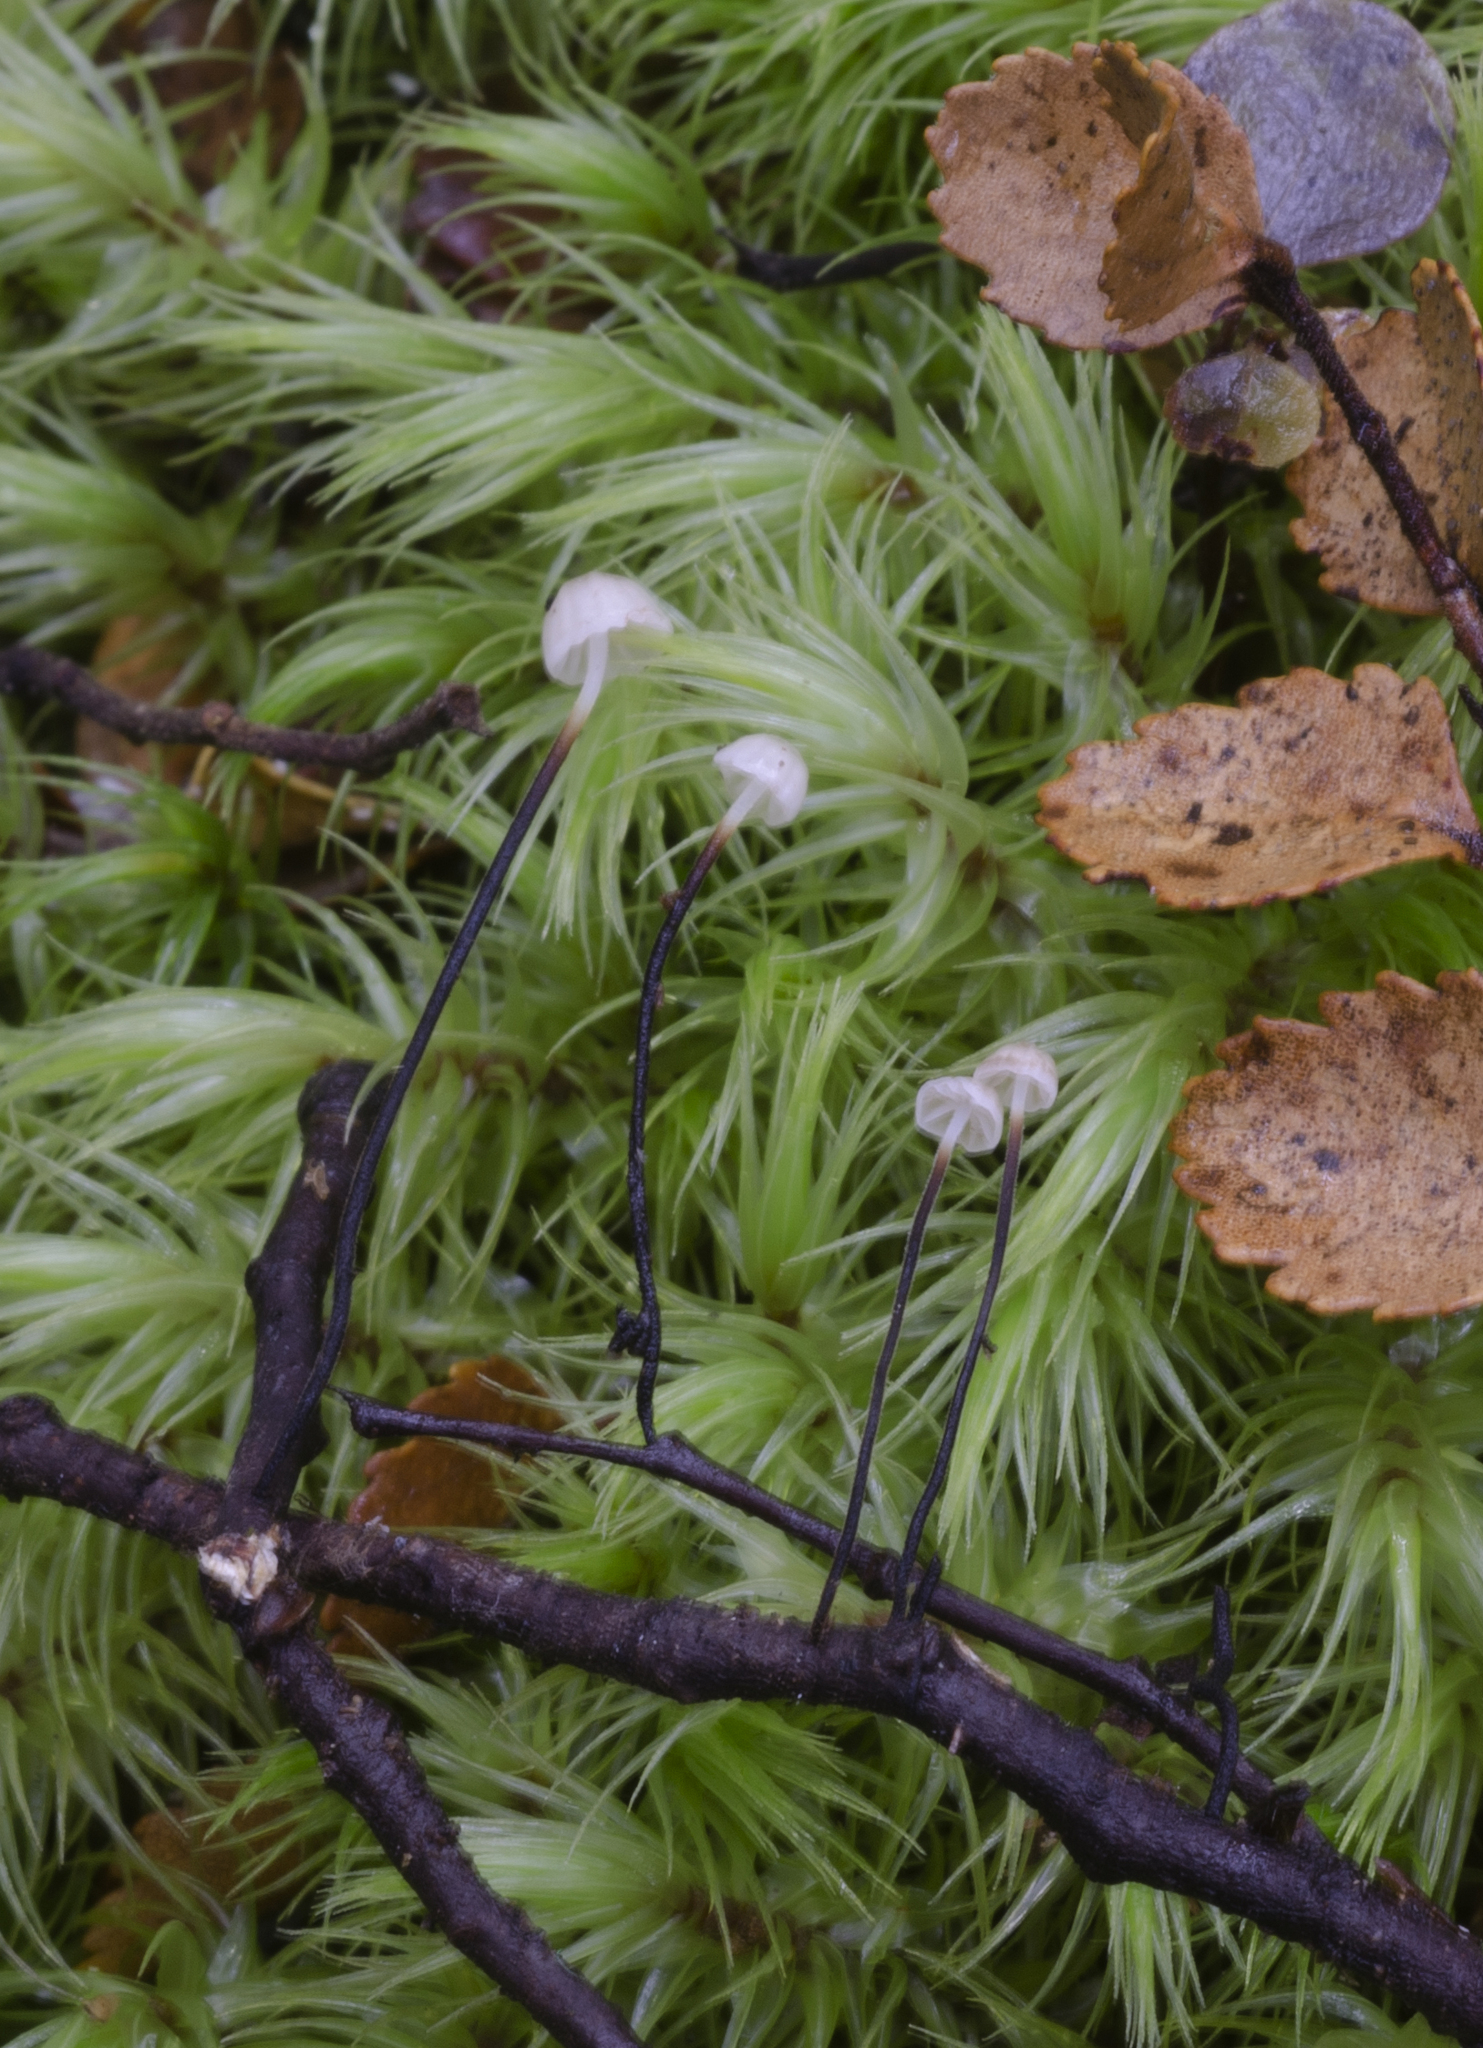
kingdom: Fungi
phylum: Basidiomycota
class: Agaricomycetes
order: Agaricales
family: Physalacriaceae
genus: Gloiocephala
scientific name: Gloiocephala nothofagi
